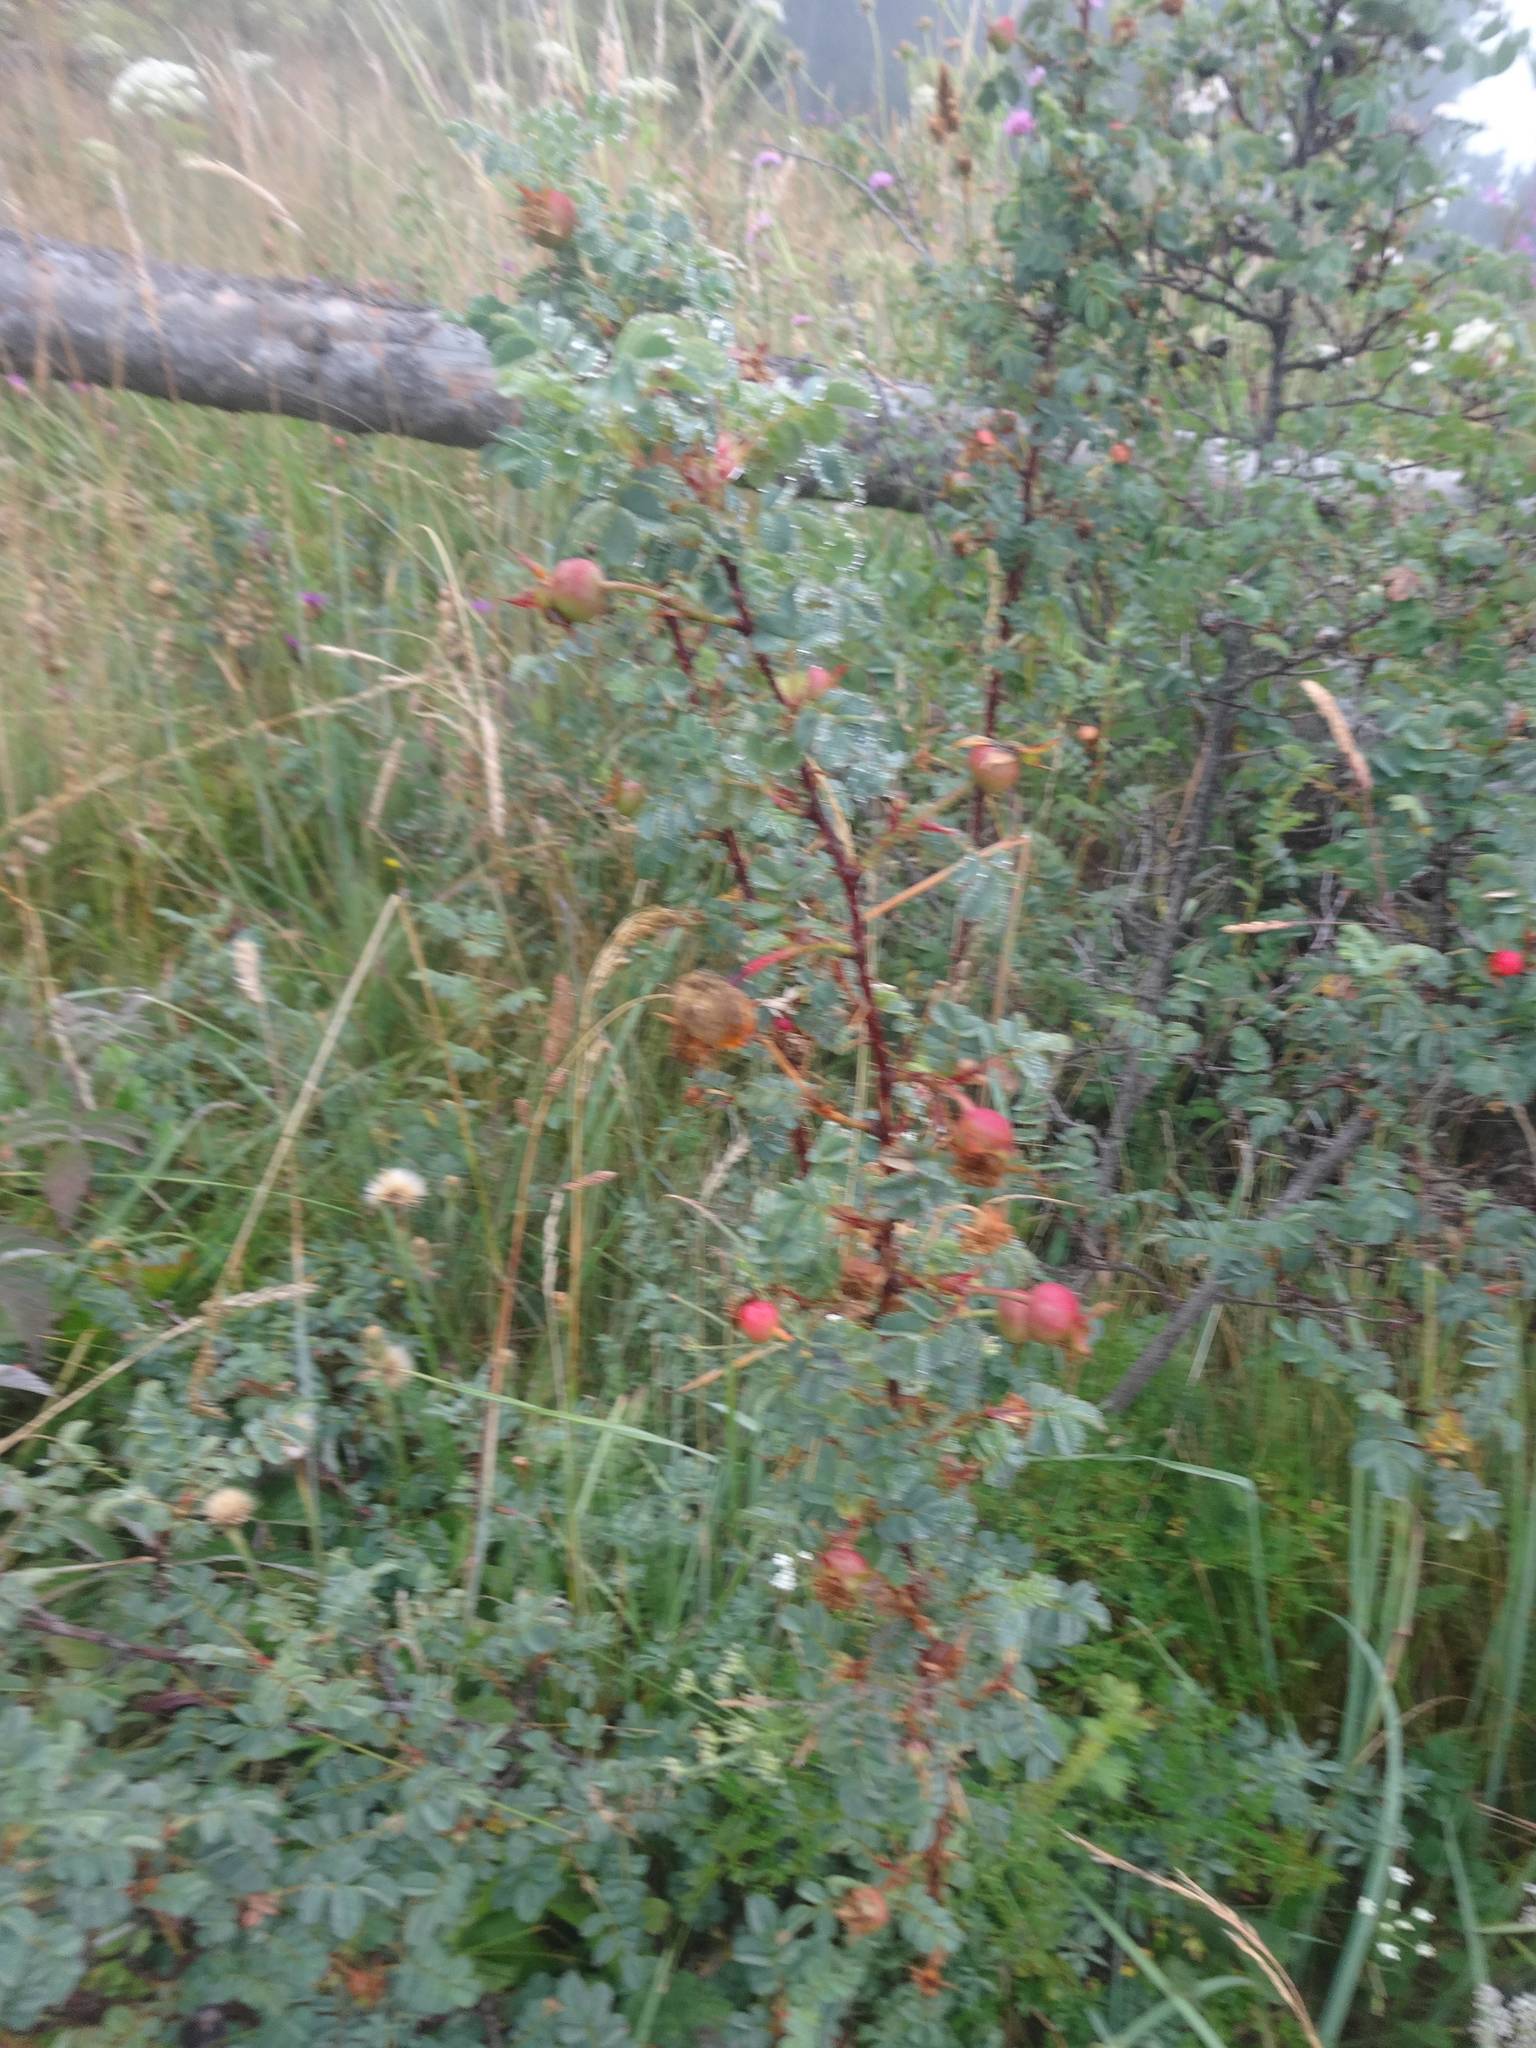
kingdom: Plantae
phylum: Tracheophyta
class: Magnoliopsida
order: Rosales
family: Rosaceae
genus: Rosa
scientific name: Rosa spinosissima
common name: Burnet rose
